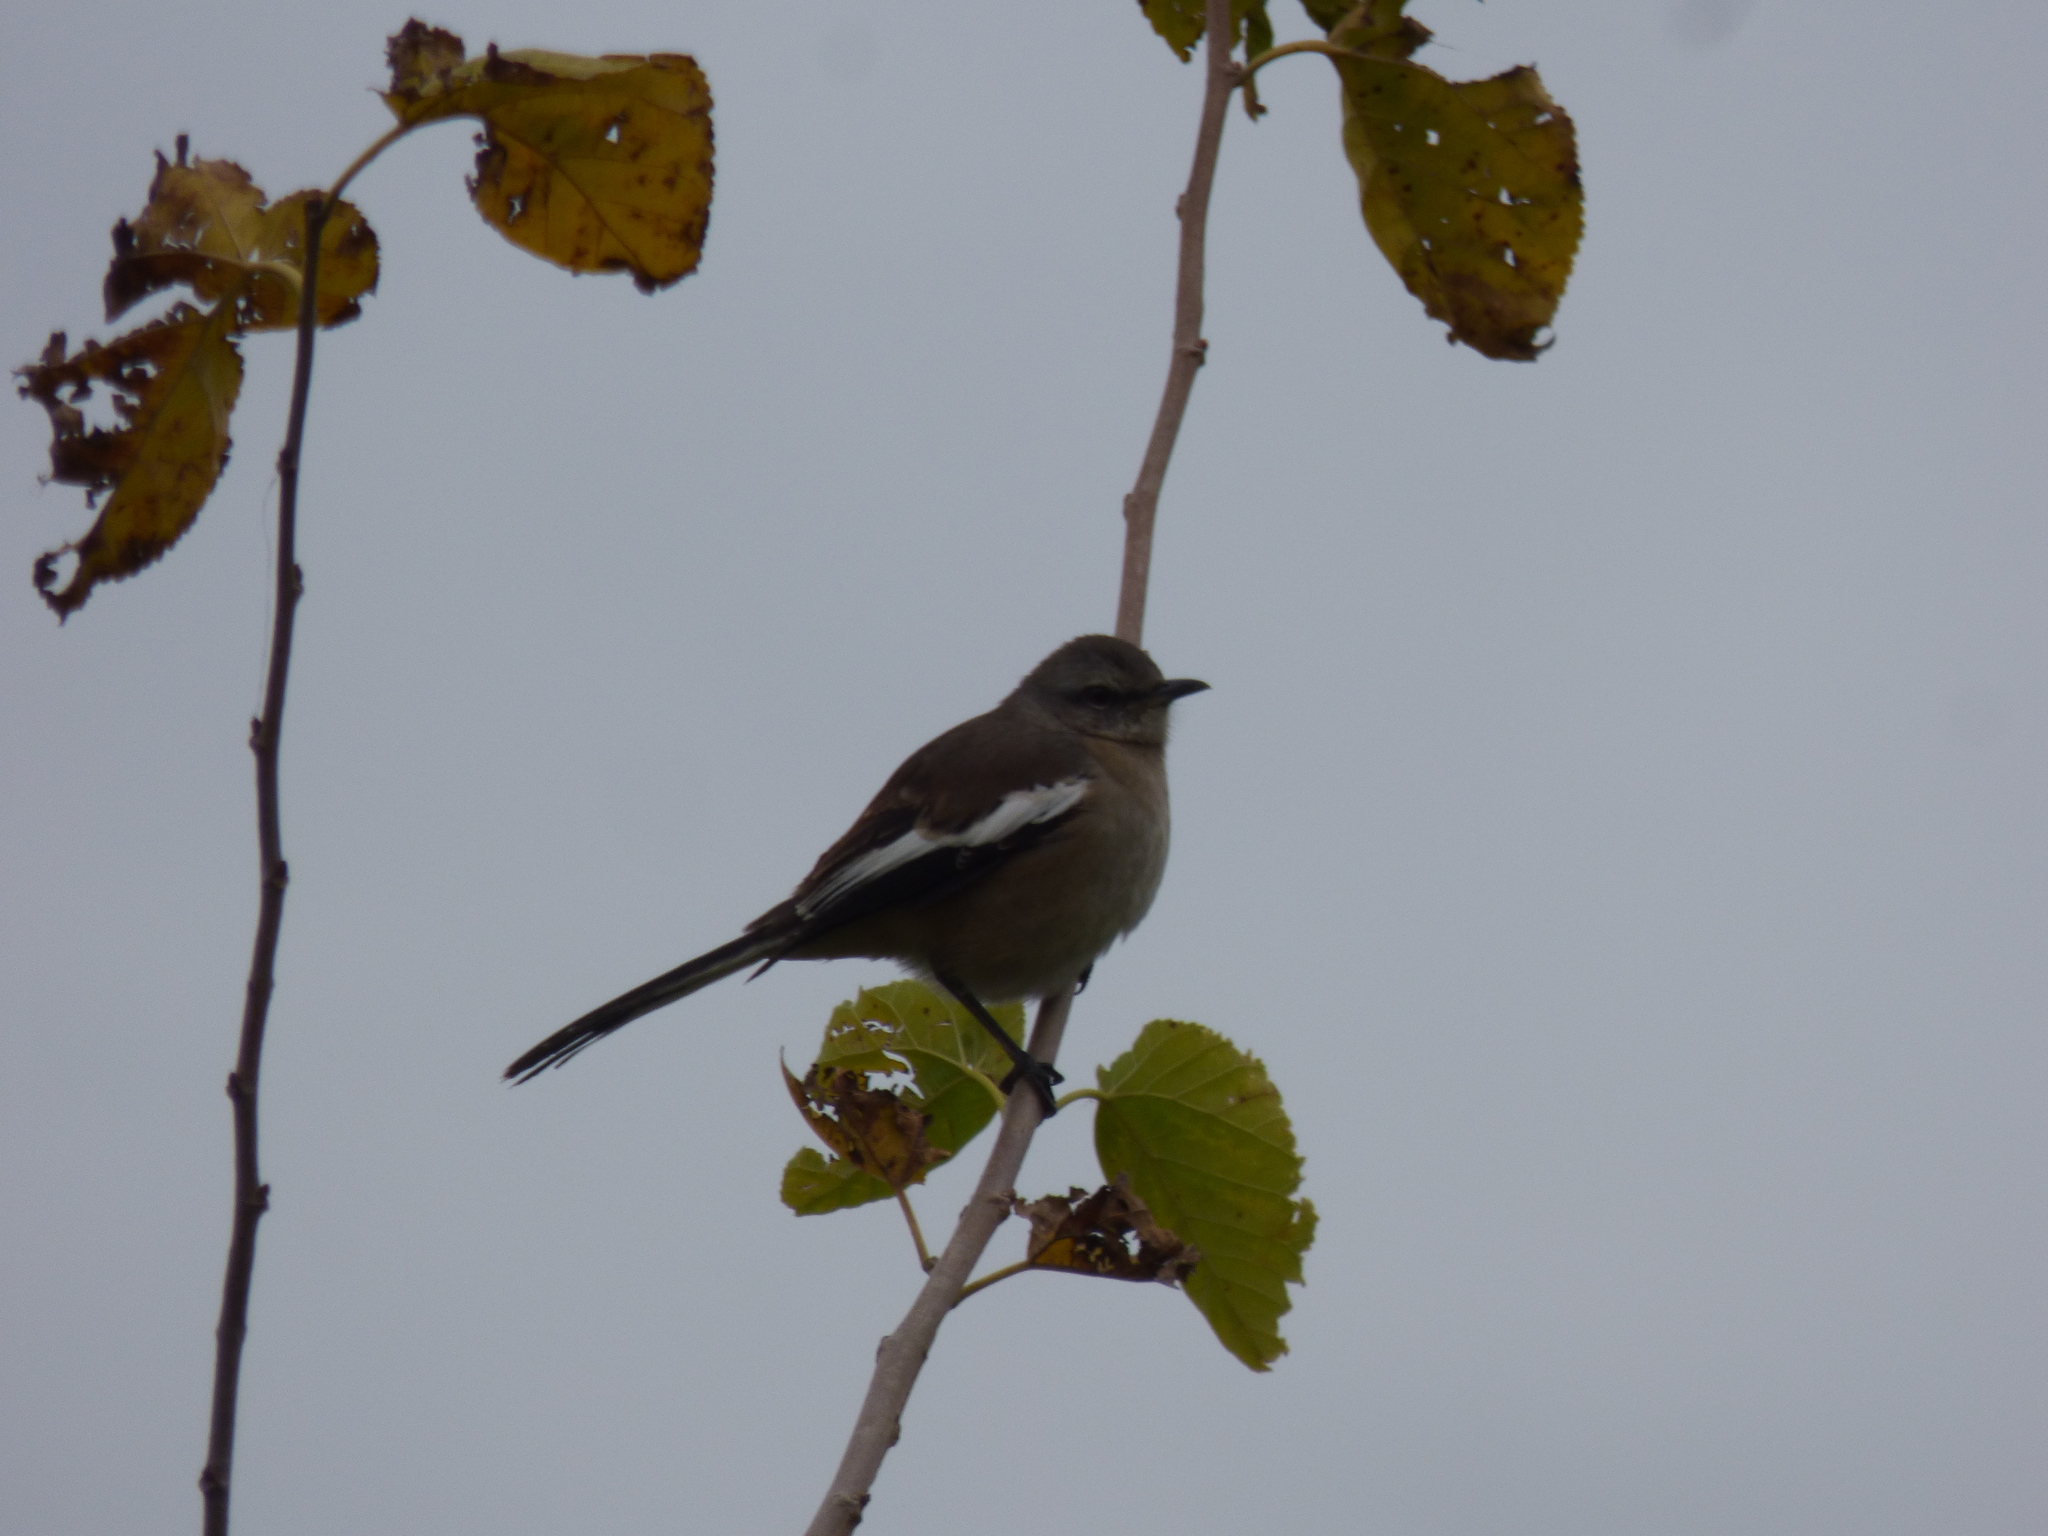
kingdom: Animalia
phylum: Chordata
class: Aves
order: Passeriformes
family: Mimidae
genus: Mimus
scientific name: Mimus triurus
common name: White-banded mockingbird
